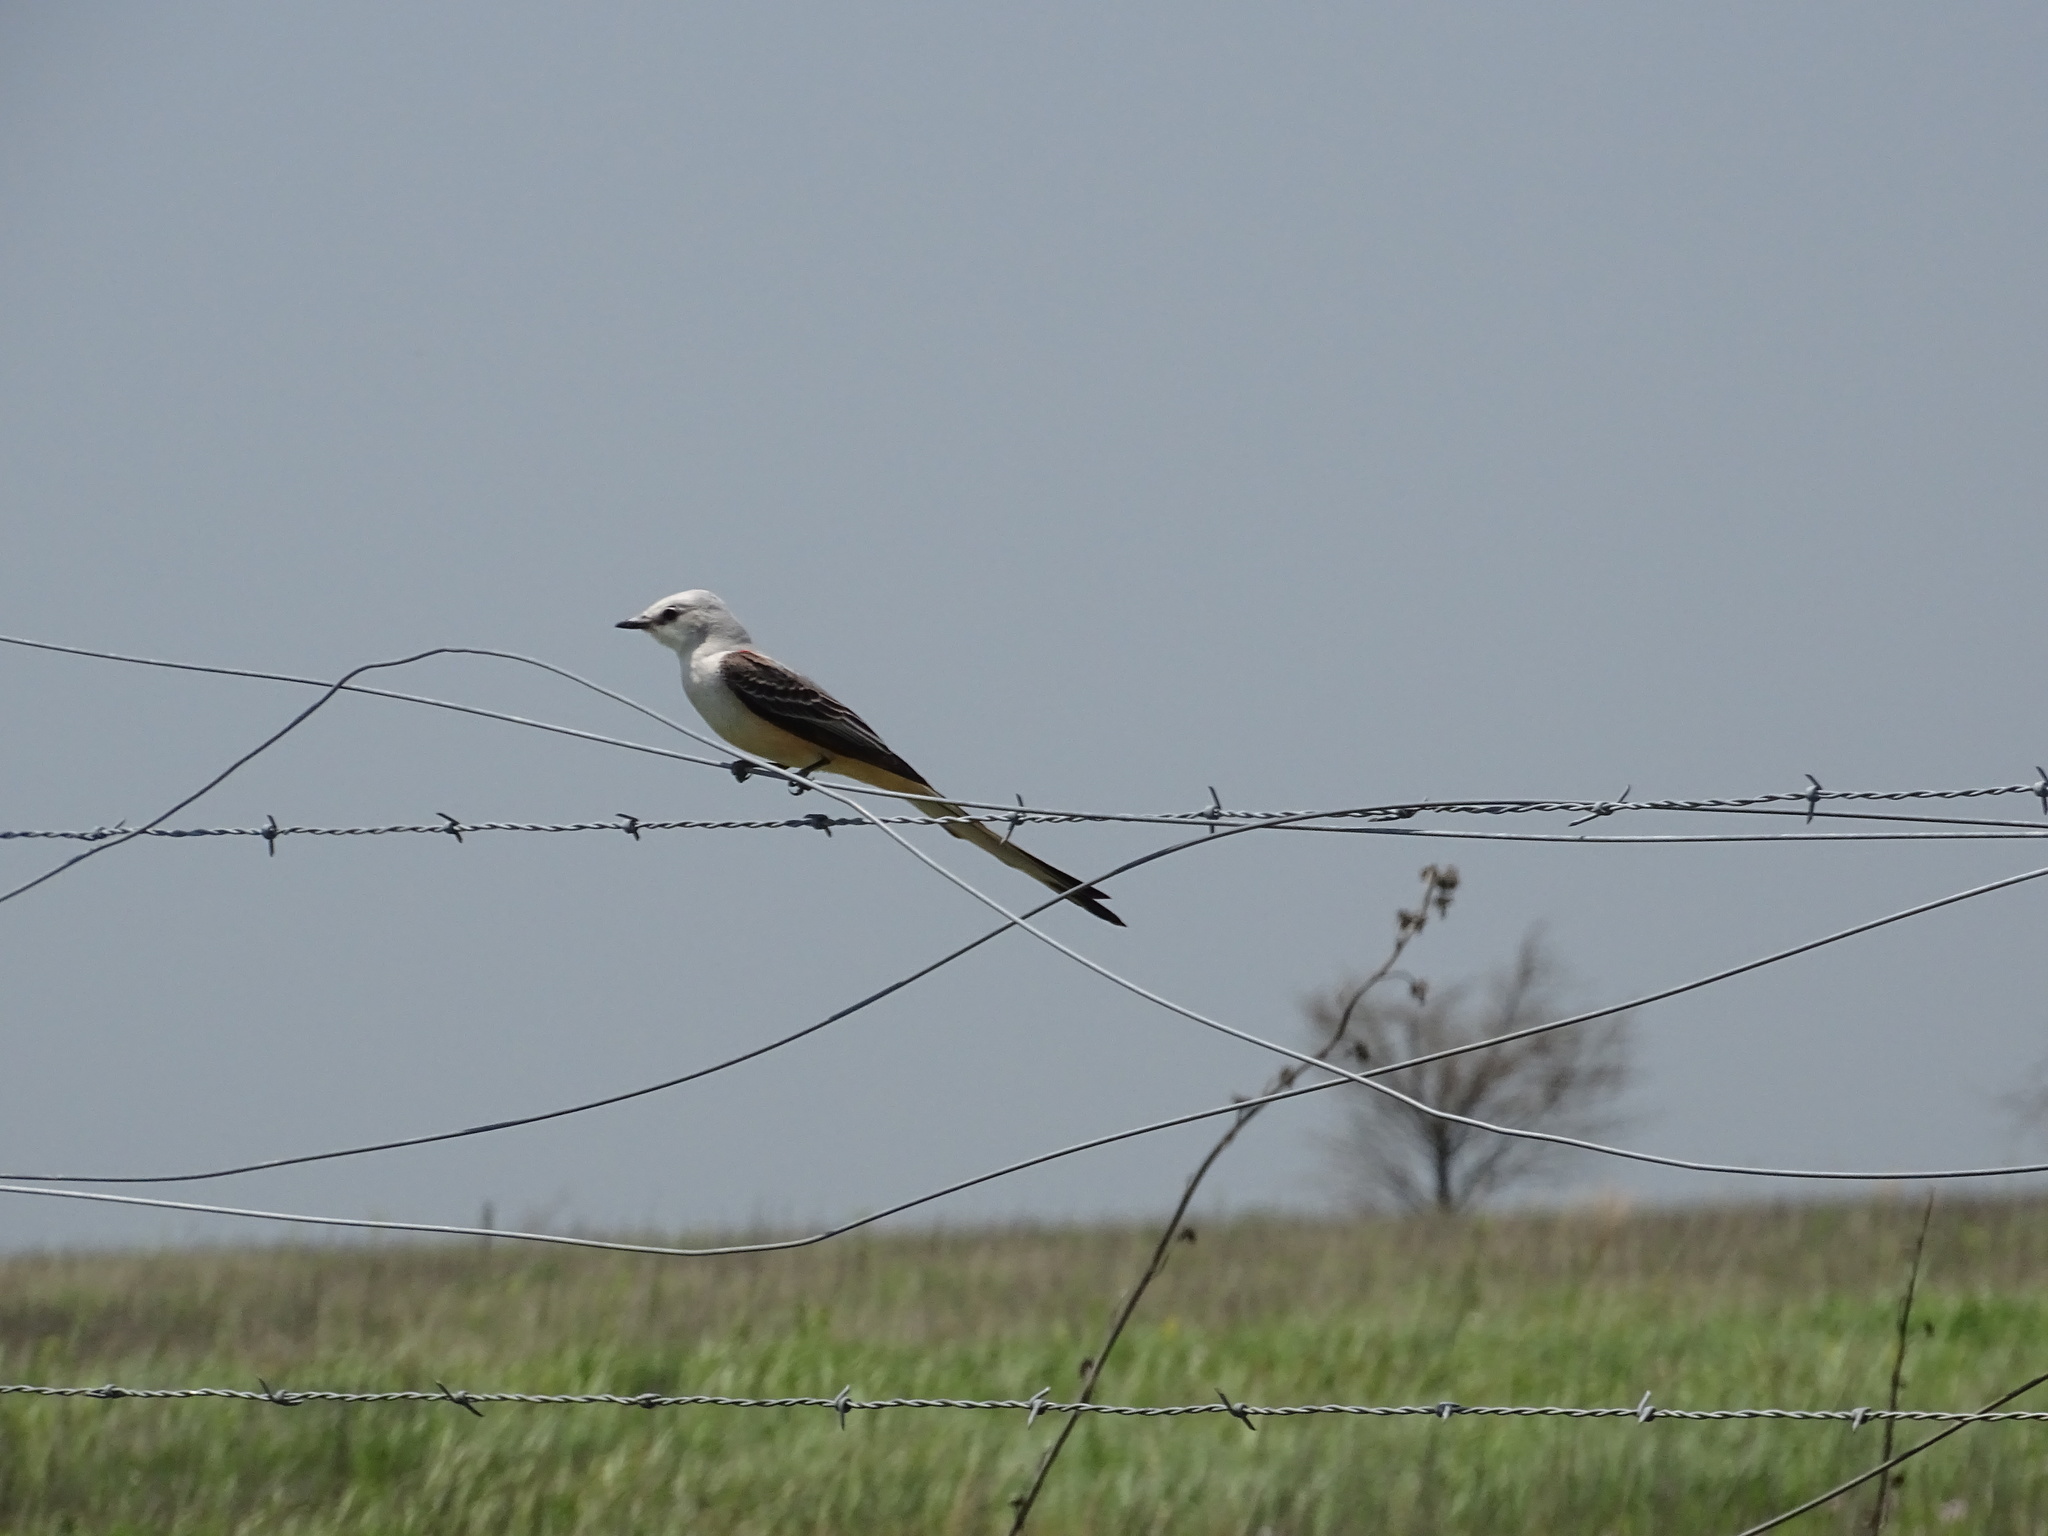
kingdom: Animalia
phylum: Chordata
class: Aves
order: Passeriformes
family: Tyrannidae
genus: Tyrannus
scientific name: Tyrannus forficatus
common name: Scissor-tailed flycatcher
